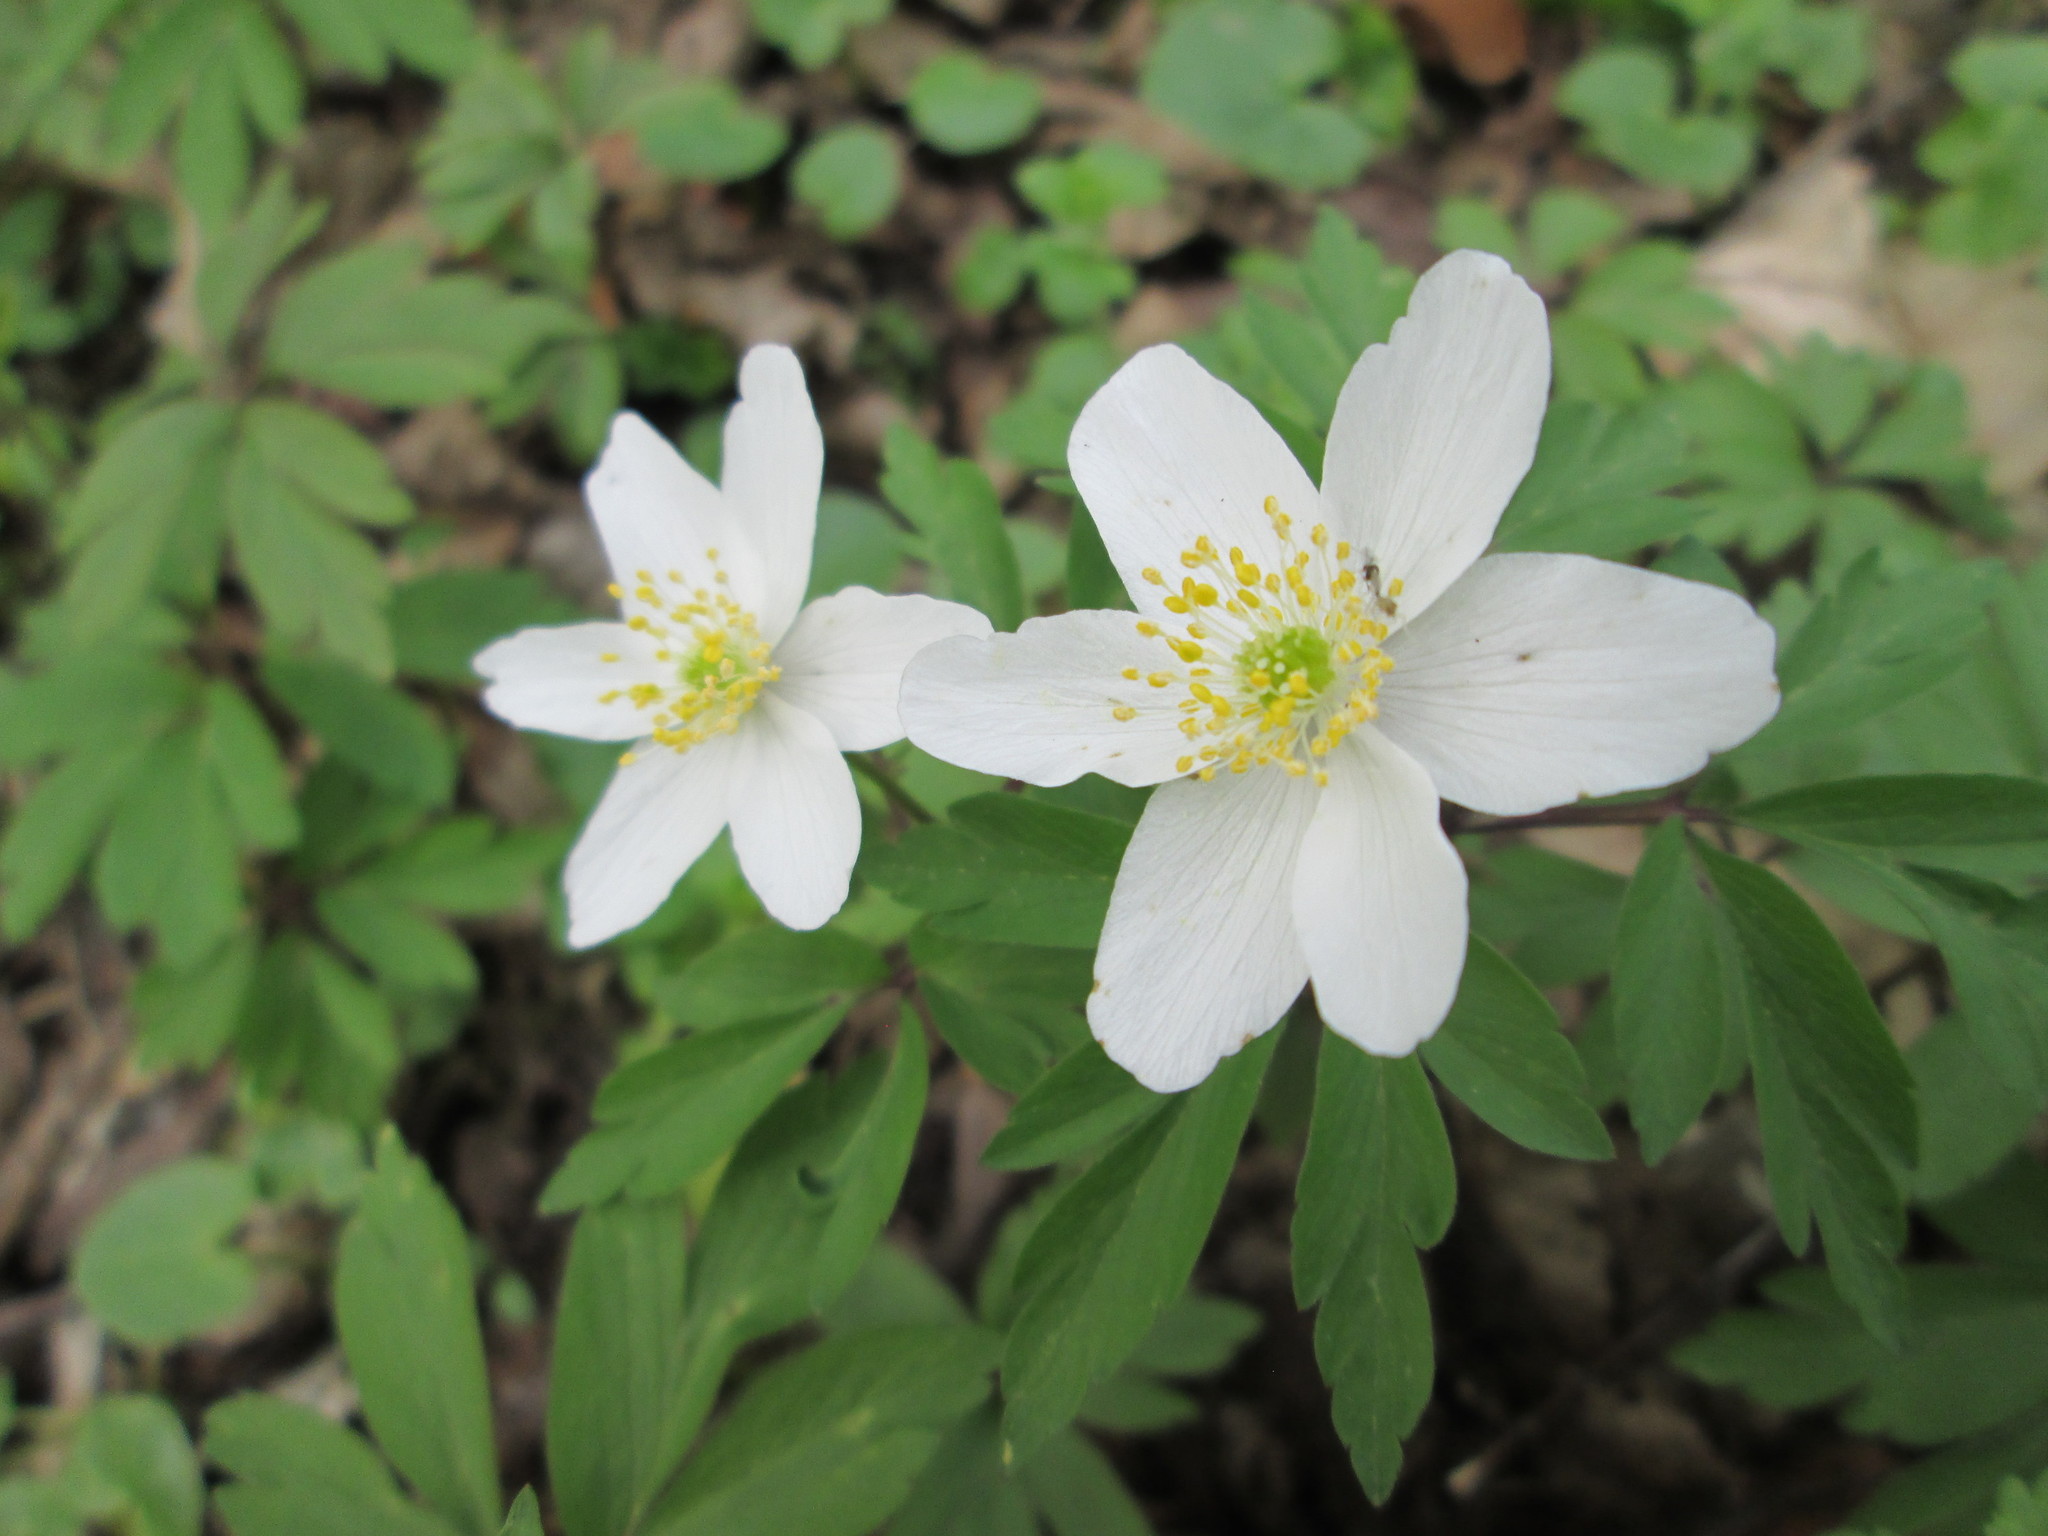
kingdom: Plantae
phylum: Tracheophyta
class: Magnoliopsida
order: Ranunculales
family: Ranunculaceae
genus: Anemone
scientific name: Anemone nemorosa
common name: Wood anemone
